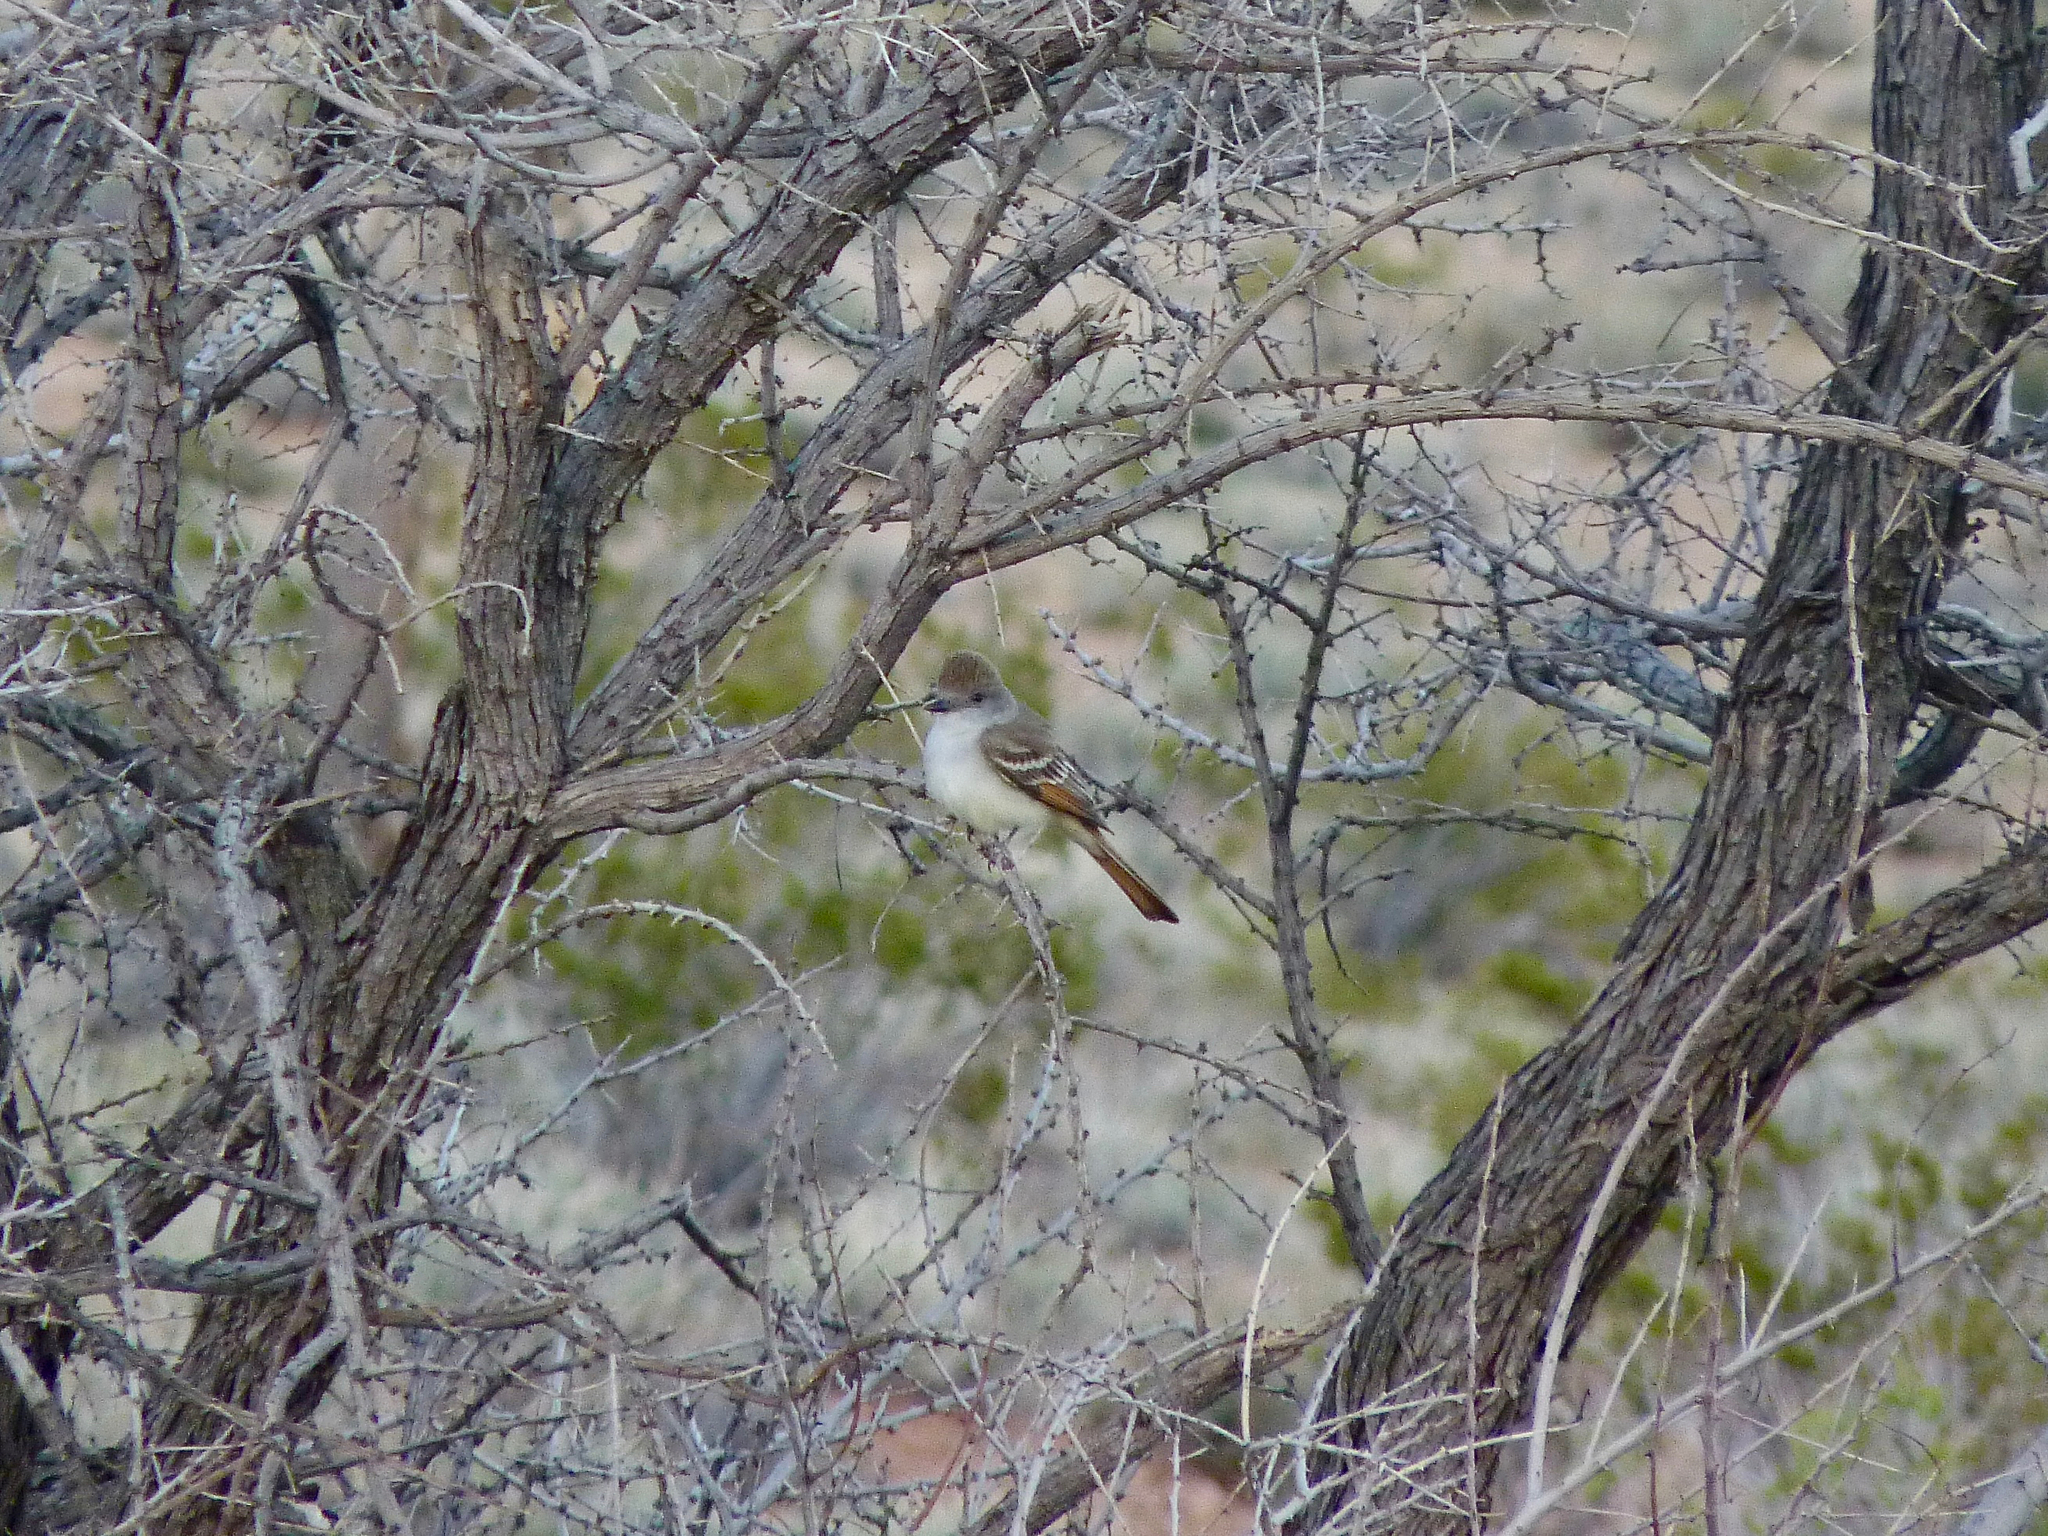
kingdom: Animalia
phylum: Chordata
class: Aves
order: Passeriformes
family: Tyrannidae
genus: Myiarchus
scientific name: Myiarchus cinerascens
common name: Ash-throated flycatcher
